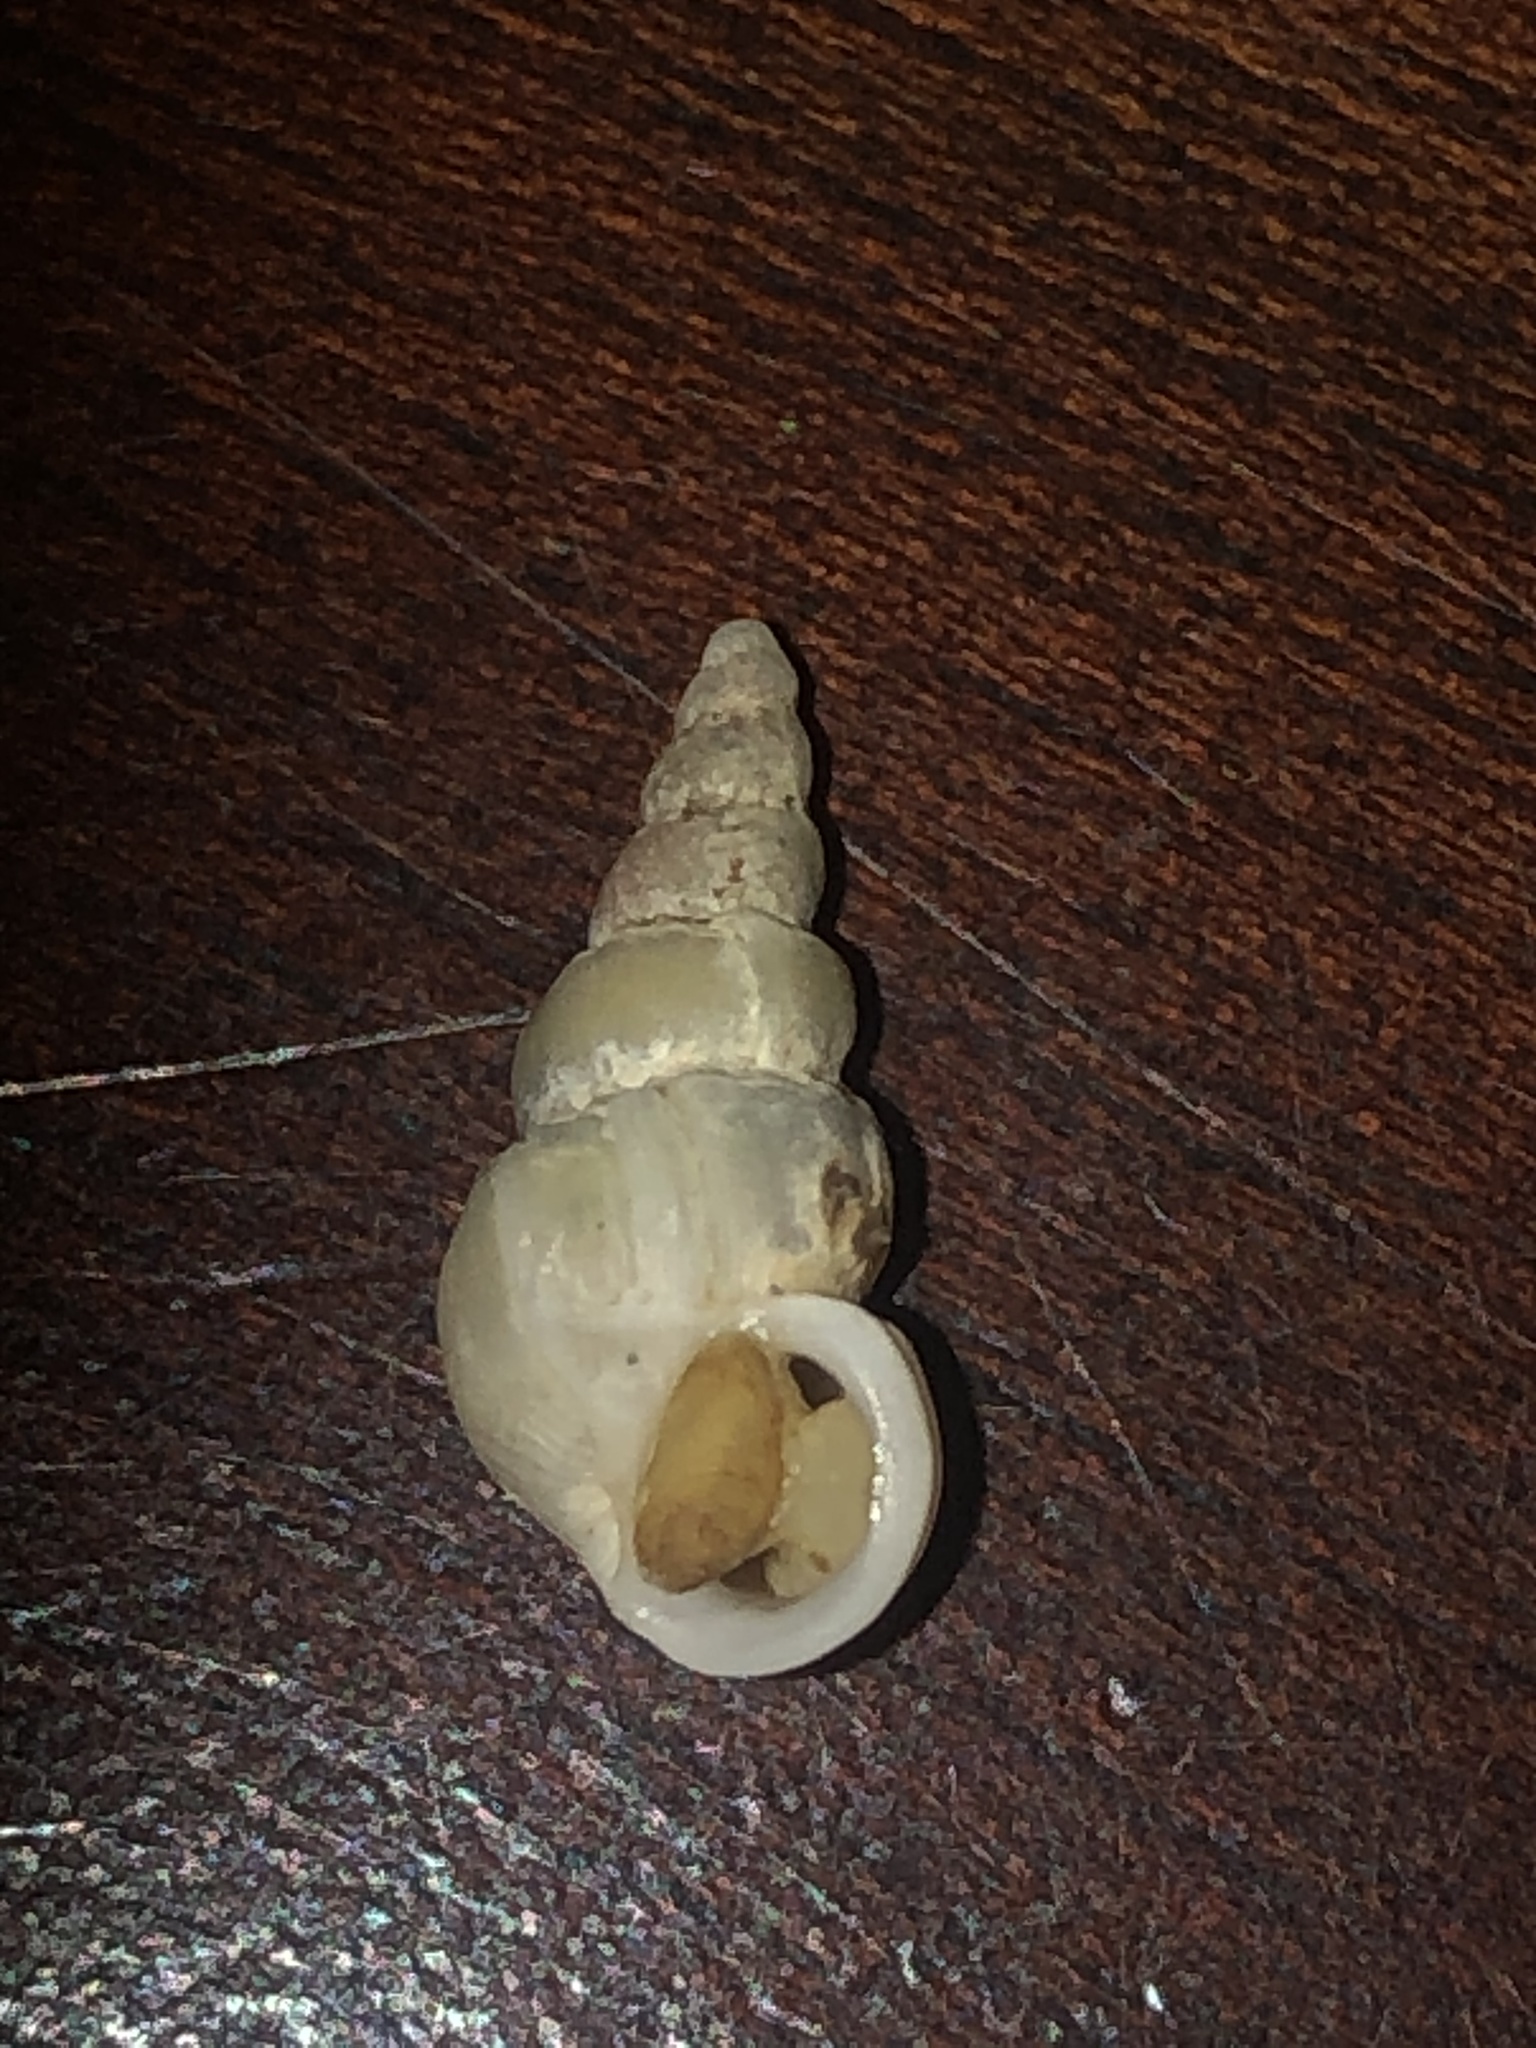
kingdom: Animalia
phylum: Mollusca
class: Gastropoda
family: Epitoniidae
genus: Opalia
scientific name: Opalia funiculata
